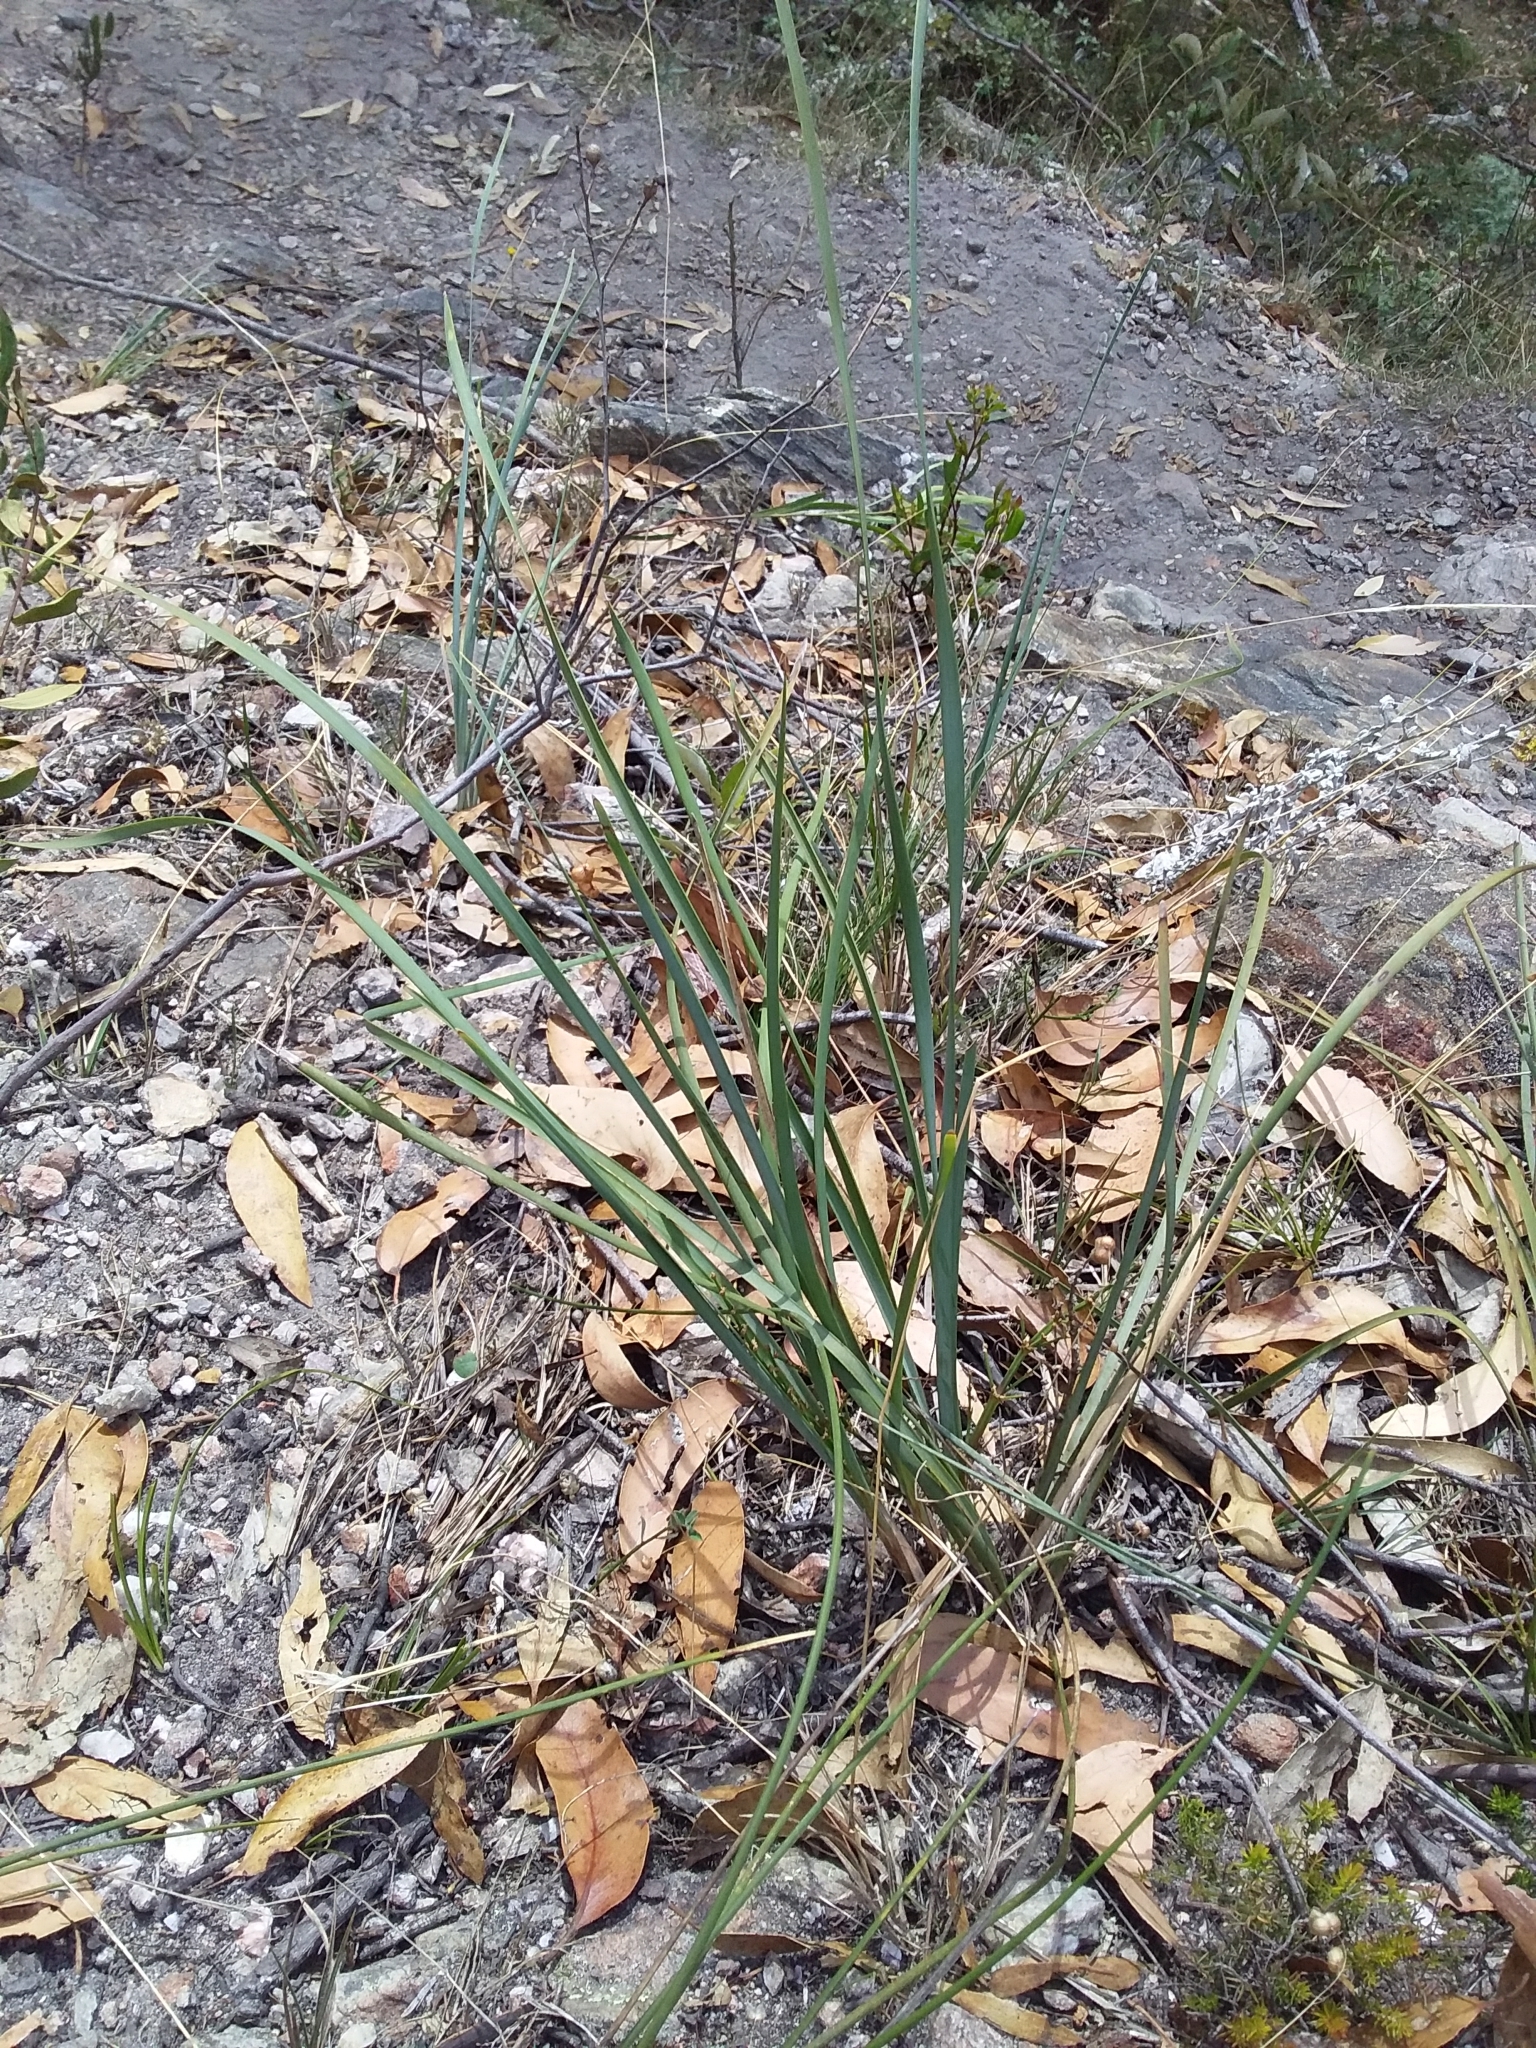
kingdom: Plantae
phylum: Tracheophyta
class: Liliopsida
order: Asparagales
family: Asparagaceae
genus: Lomandra
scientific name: Lomandra multiflora
